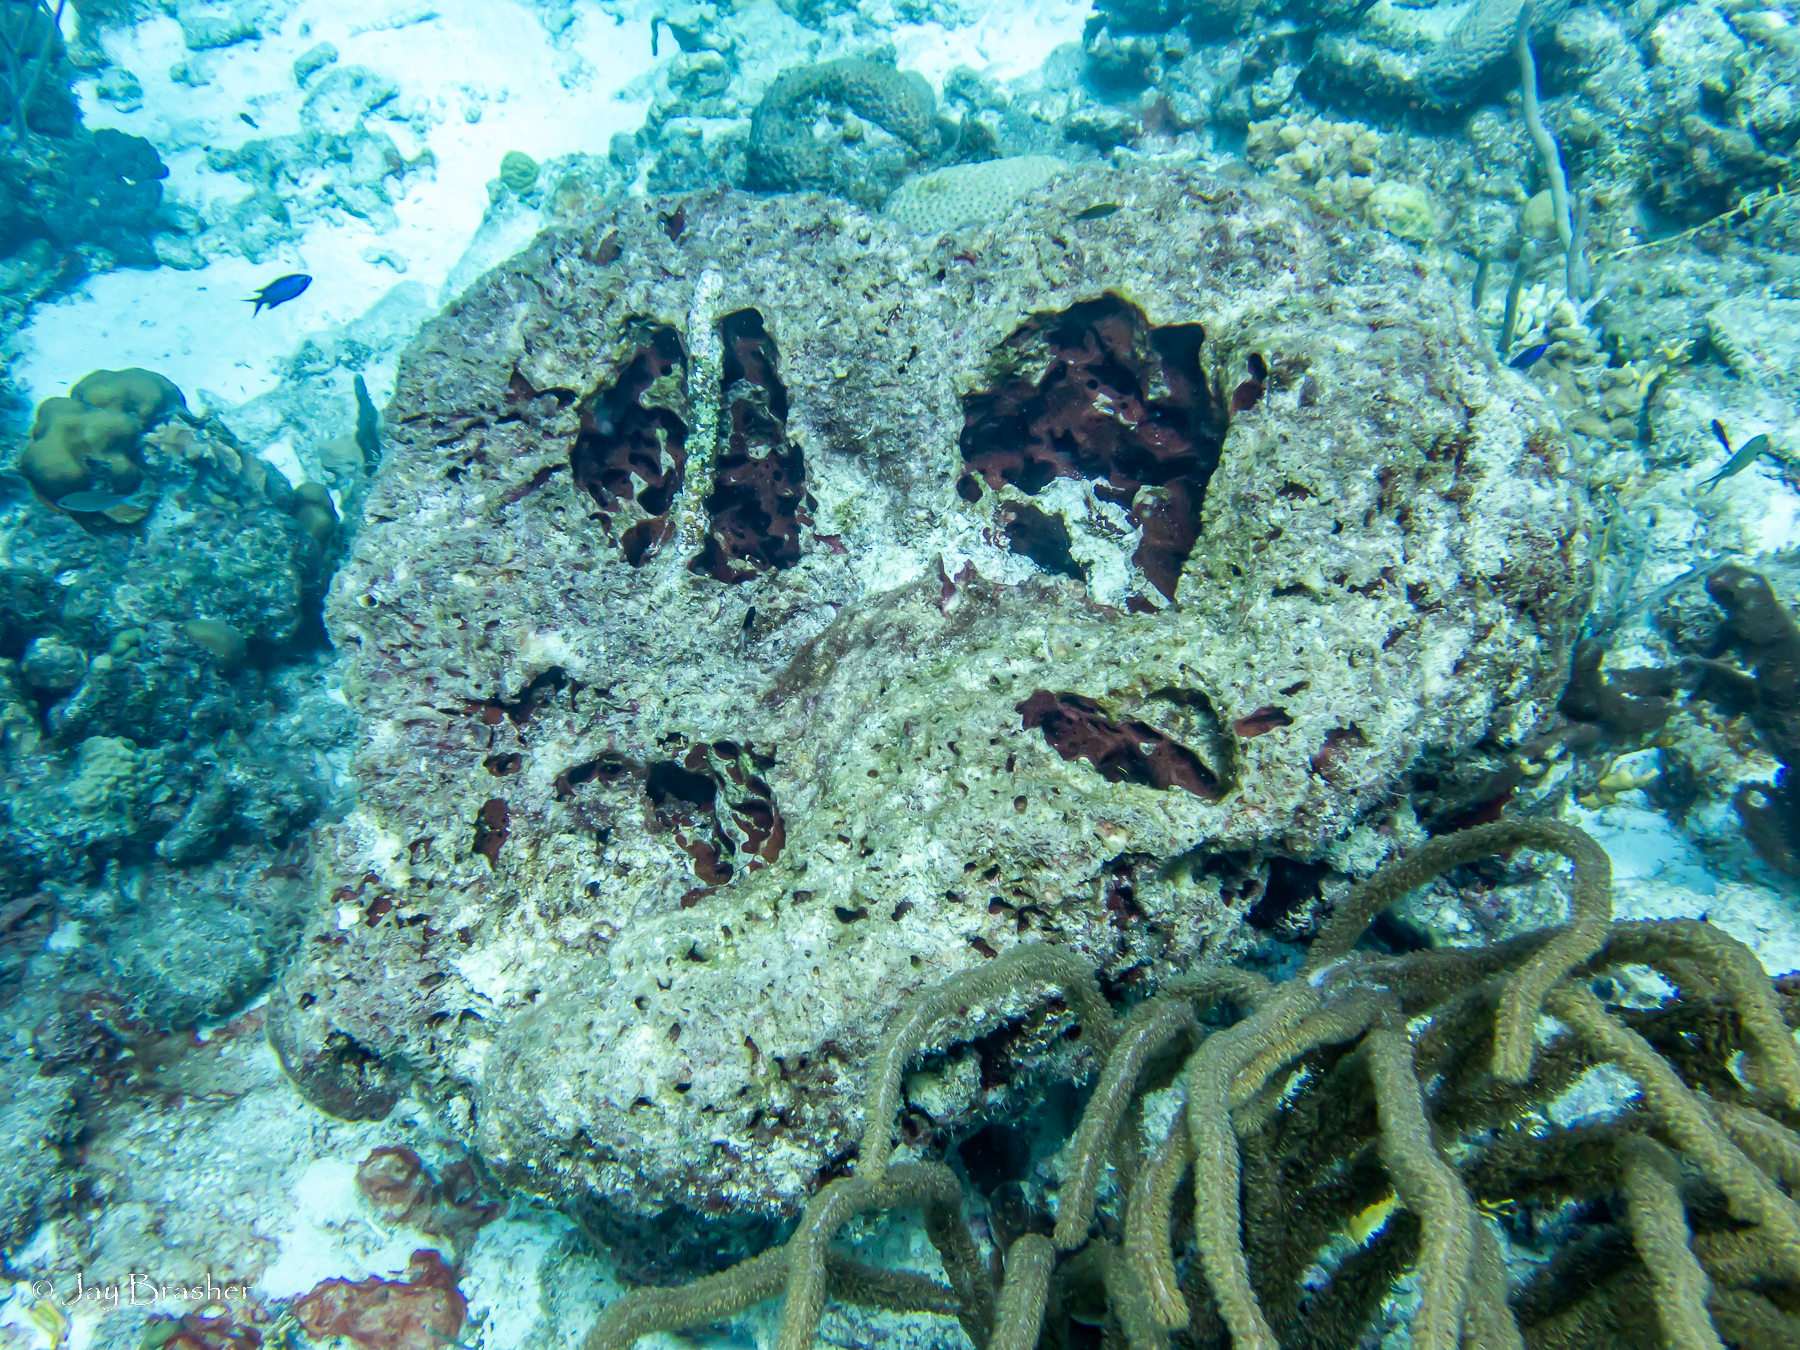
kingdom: Animalia
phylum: Porifera
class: Demospongiae
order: Biemnida
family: Biemnidae
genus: Neofibularia
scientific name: Neofibularia nolitangere
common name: Do-not-touch-me sponge
